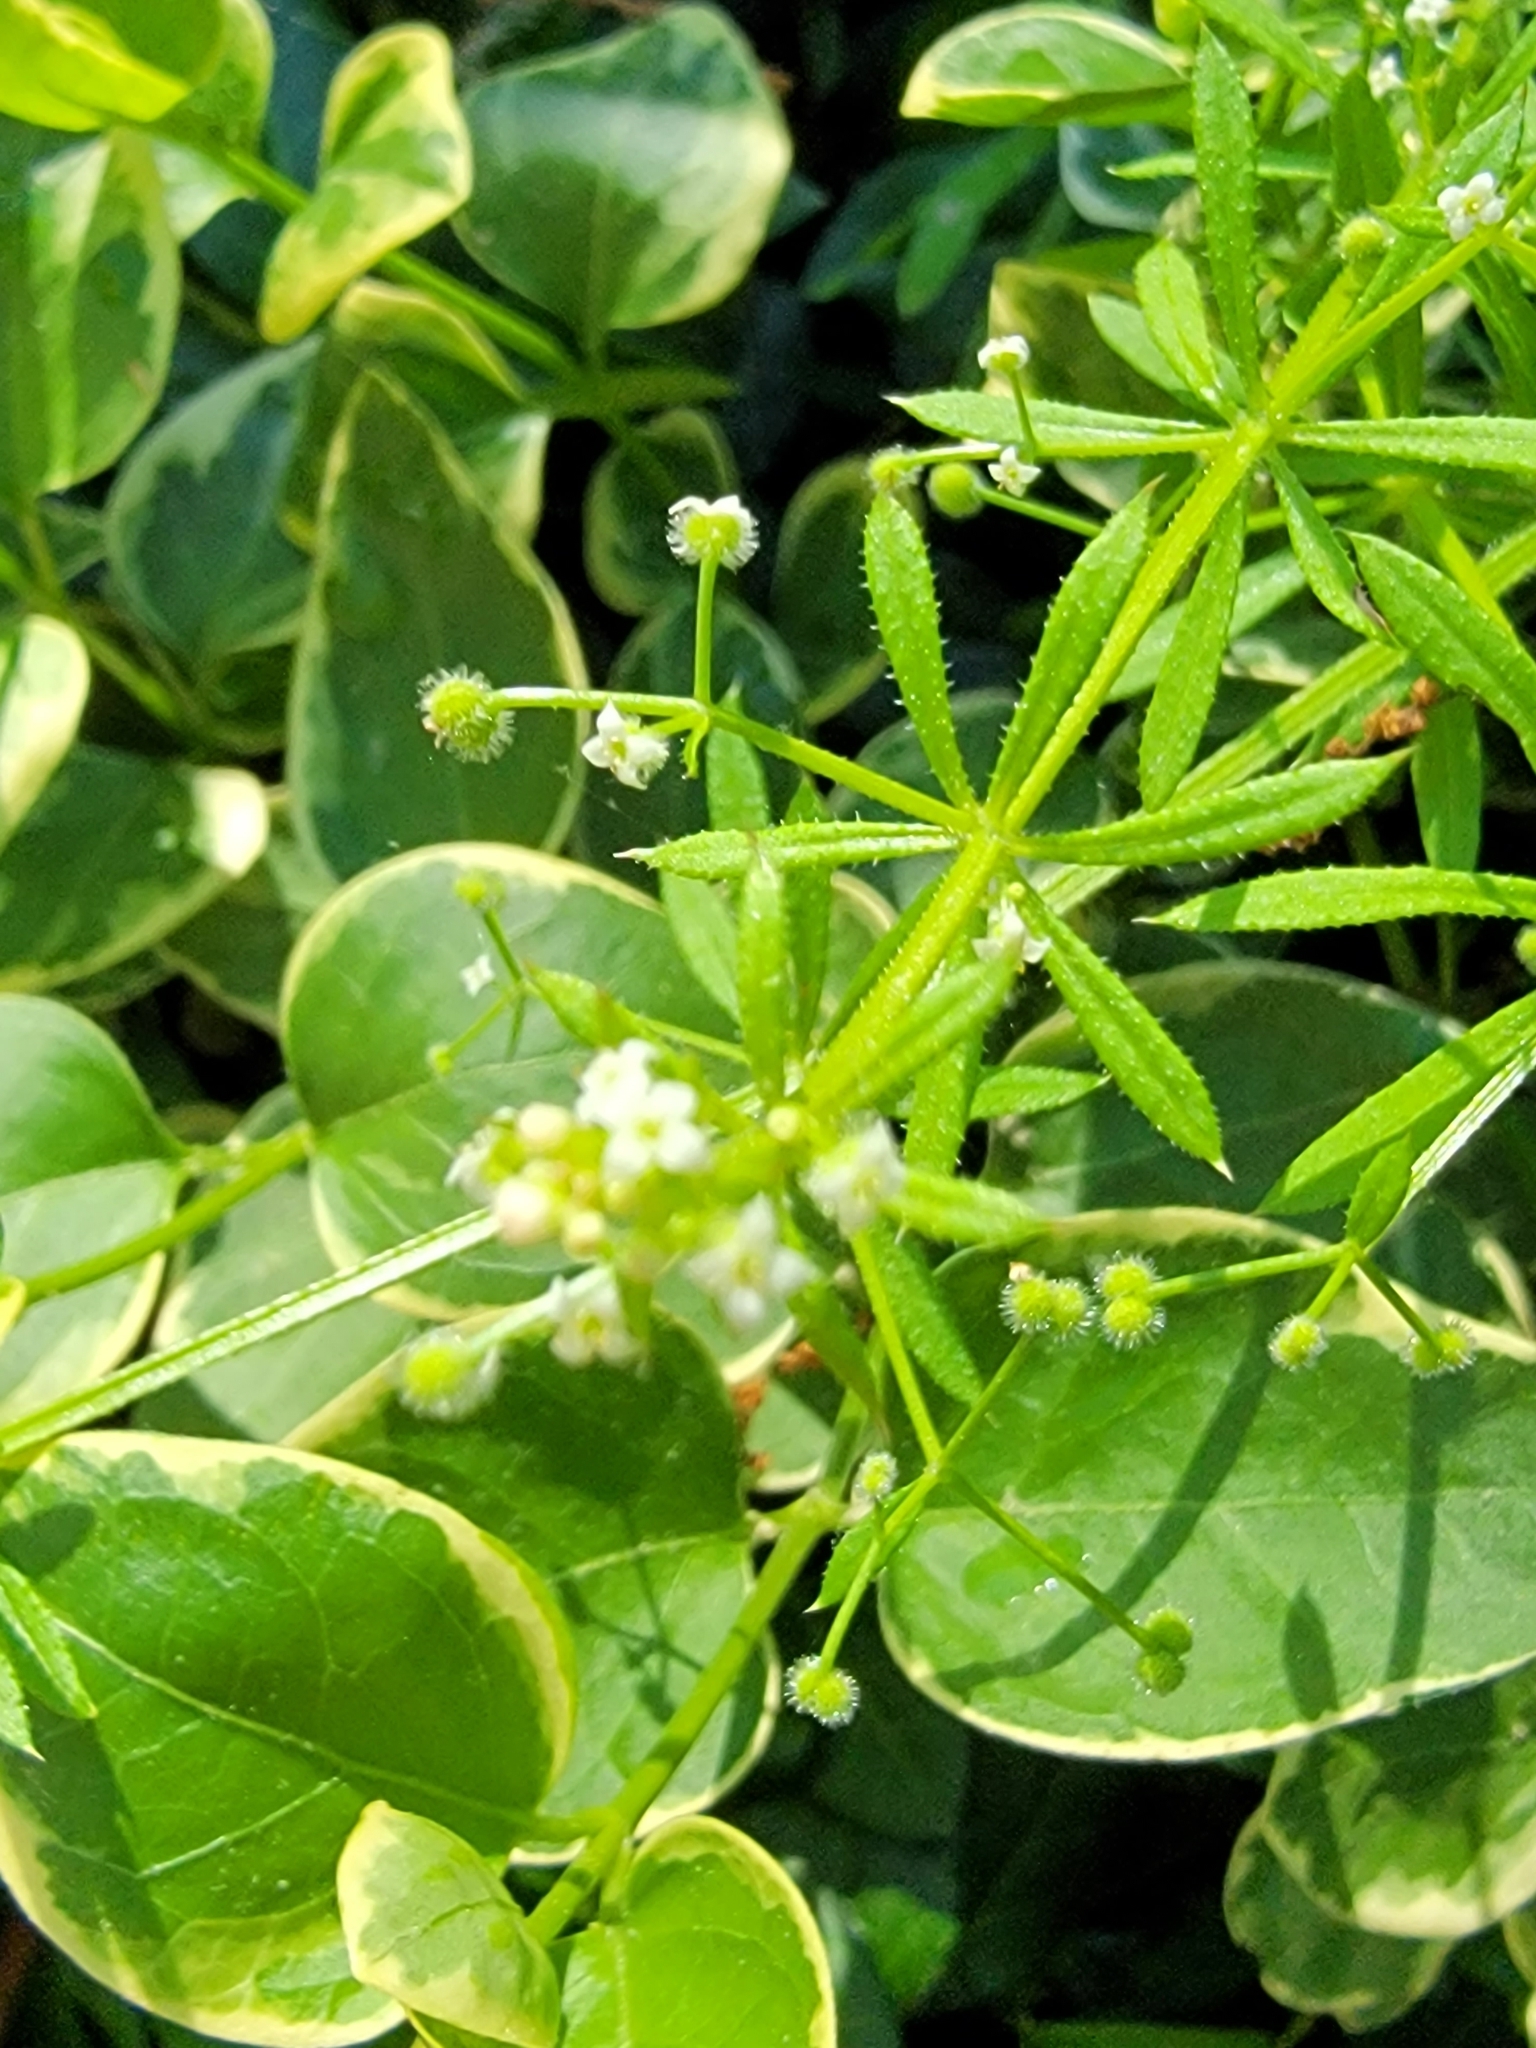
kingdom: Plantae
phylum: Tracheophyta
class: Magnoliopsida
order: Gentianales
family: Rubiaceae
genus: Galium
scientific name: Galium aparine
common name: Cleavers
